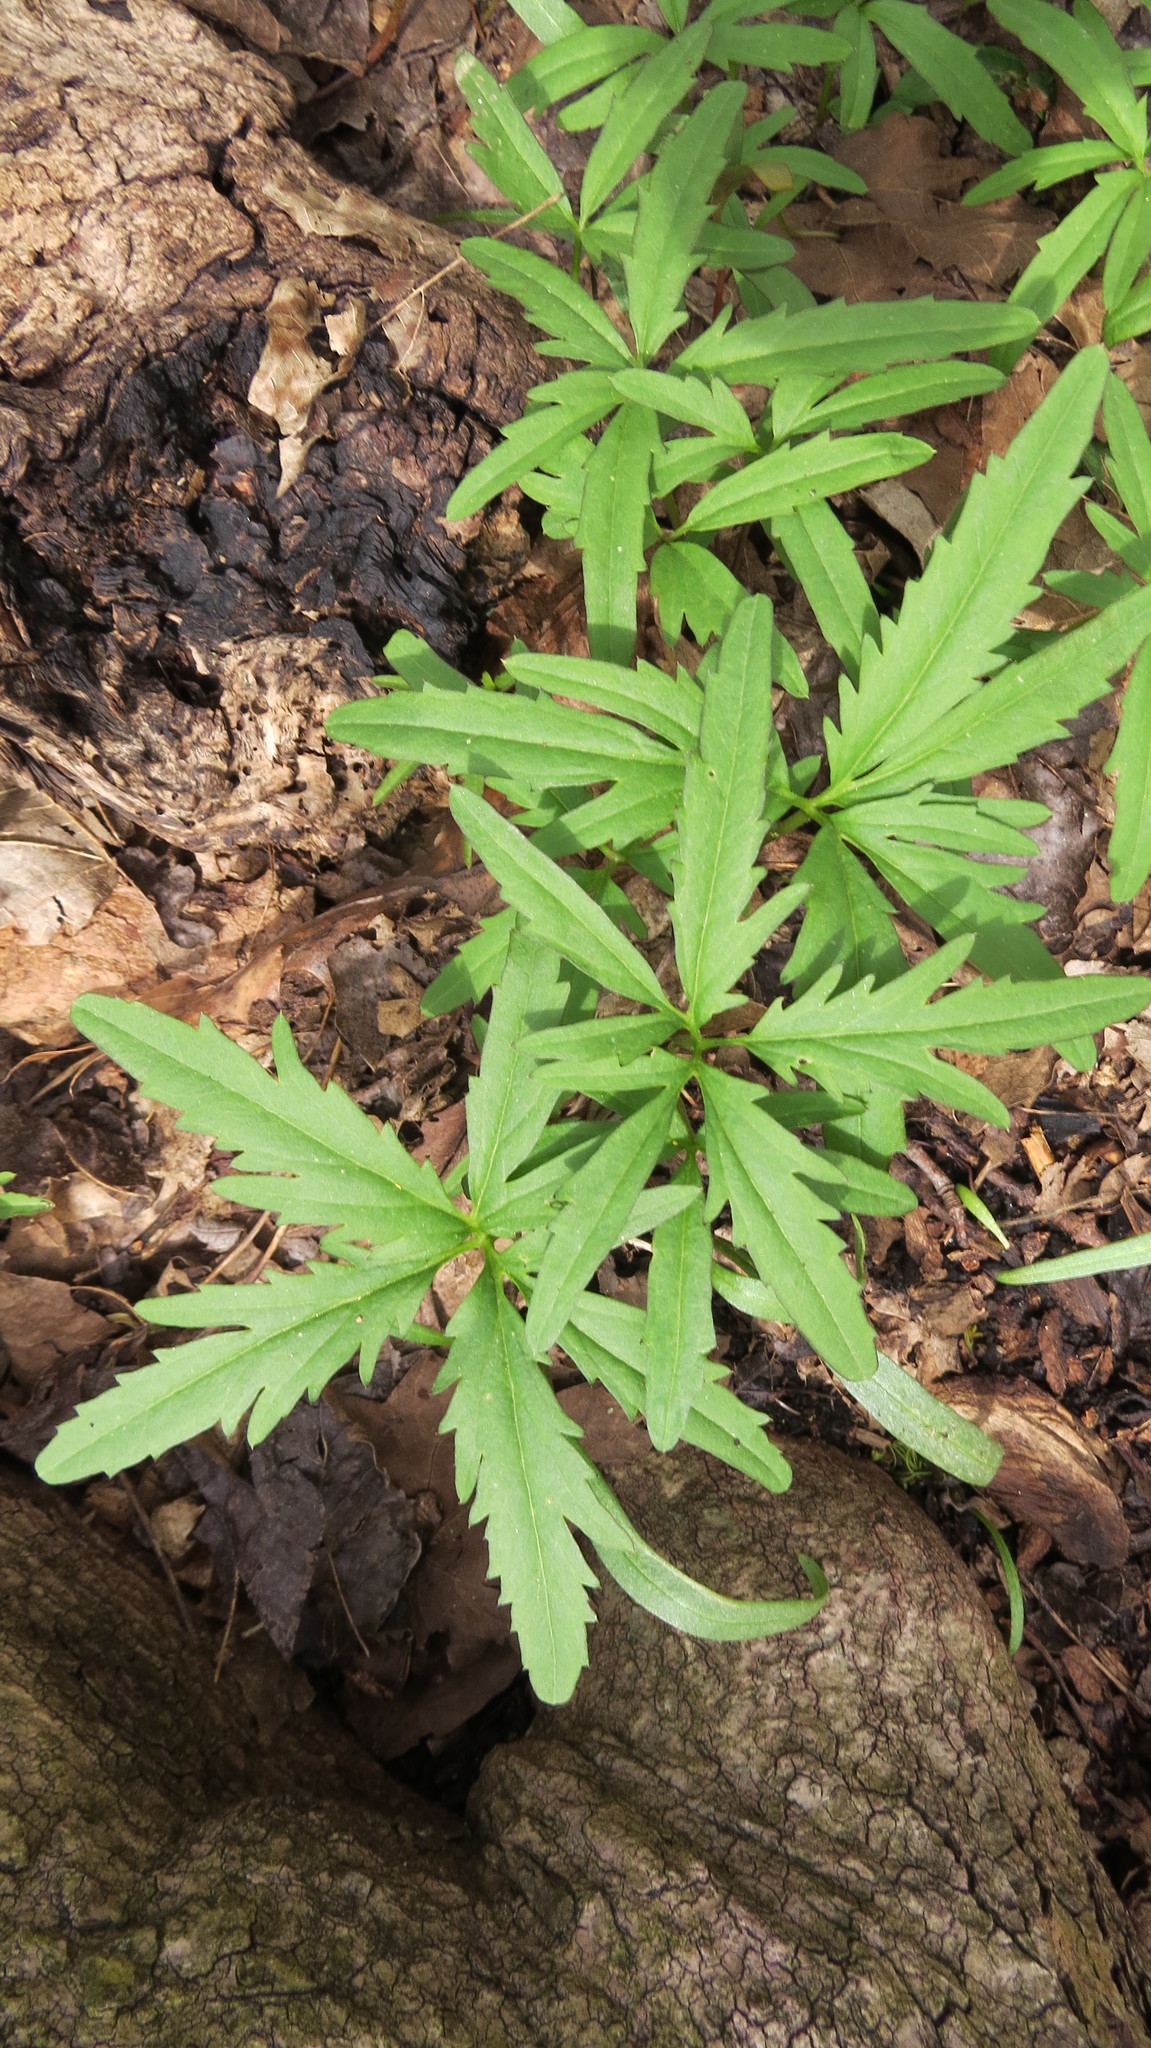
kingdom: Plantae
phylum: Tracheophyta
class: Magnoliopsida
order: Brassicales
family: Brassicaceae
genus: Cardamine
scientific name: Cardamine concatenata
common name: Cut-leaf toothcup
